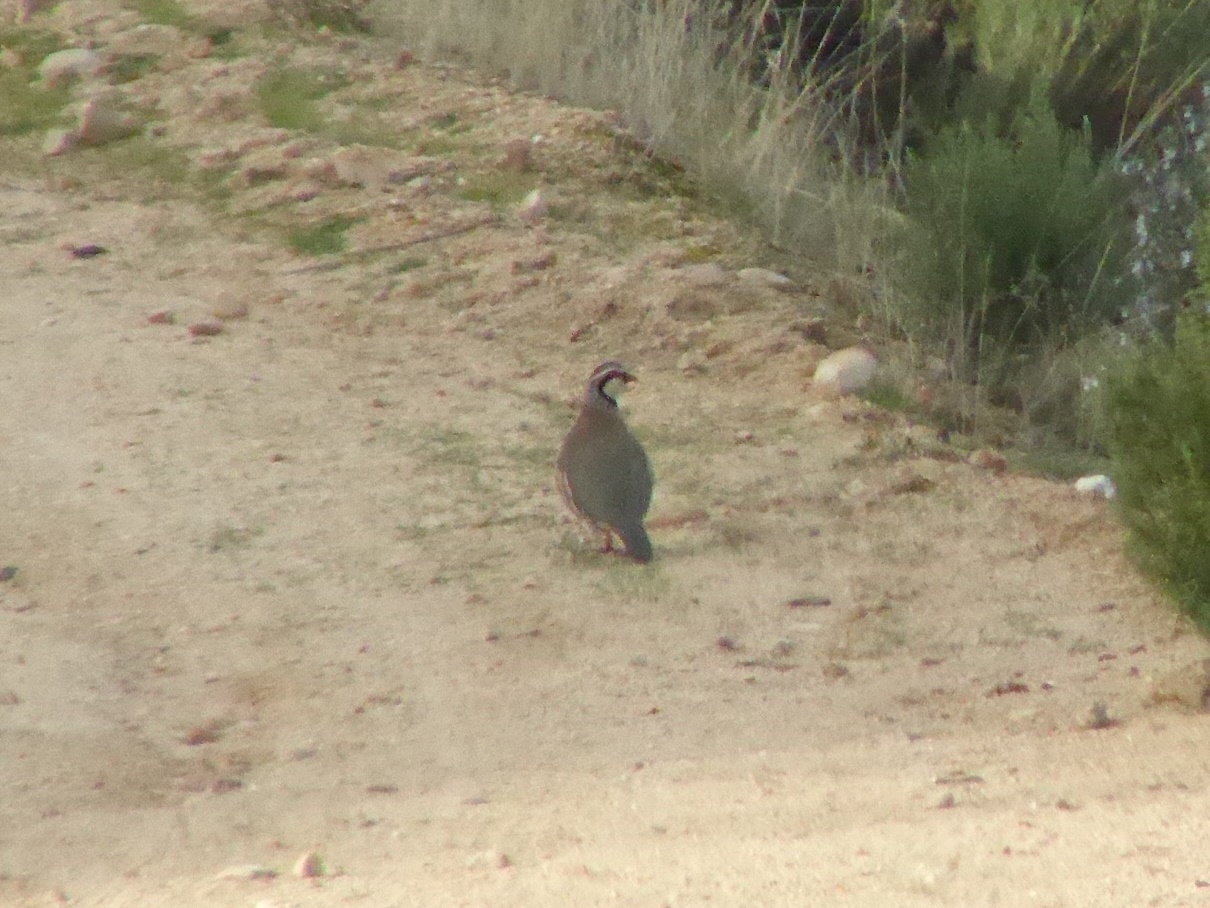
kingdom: Animalia
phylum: Chordata
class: Aves
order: Galliformes
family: Phasianidae
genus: Alectoris
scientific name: Alectoris rufa
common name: Red-legged partridge
